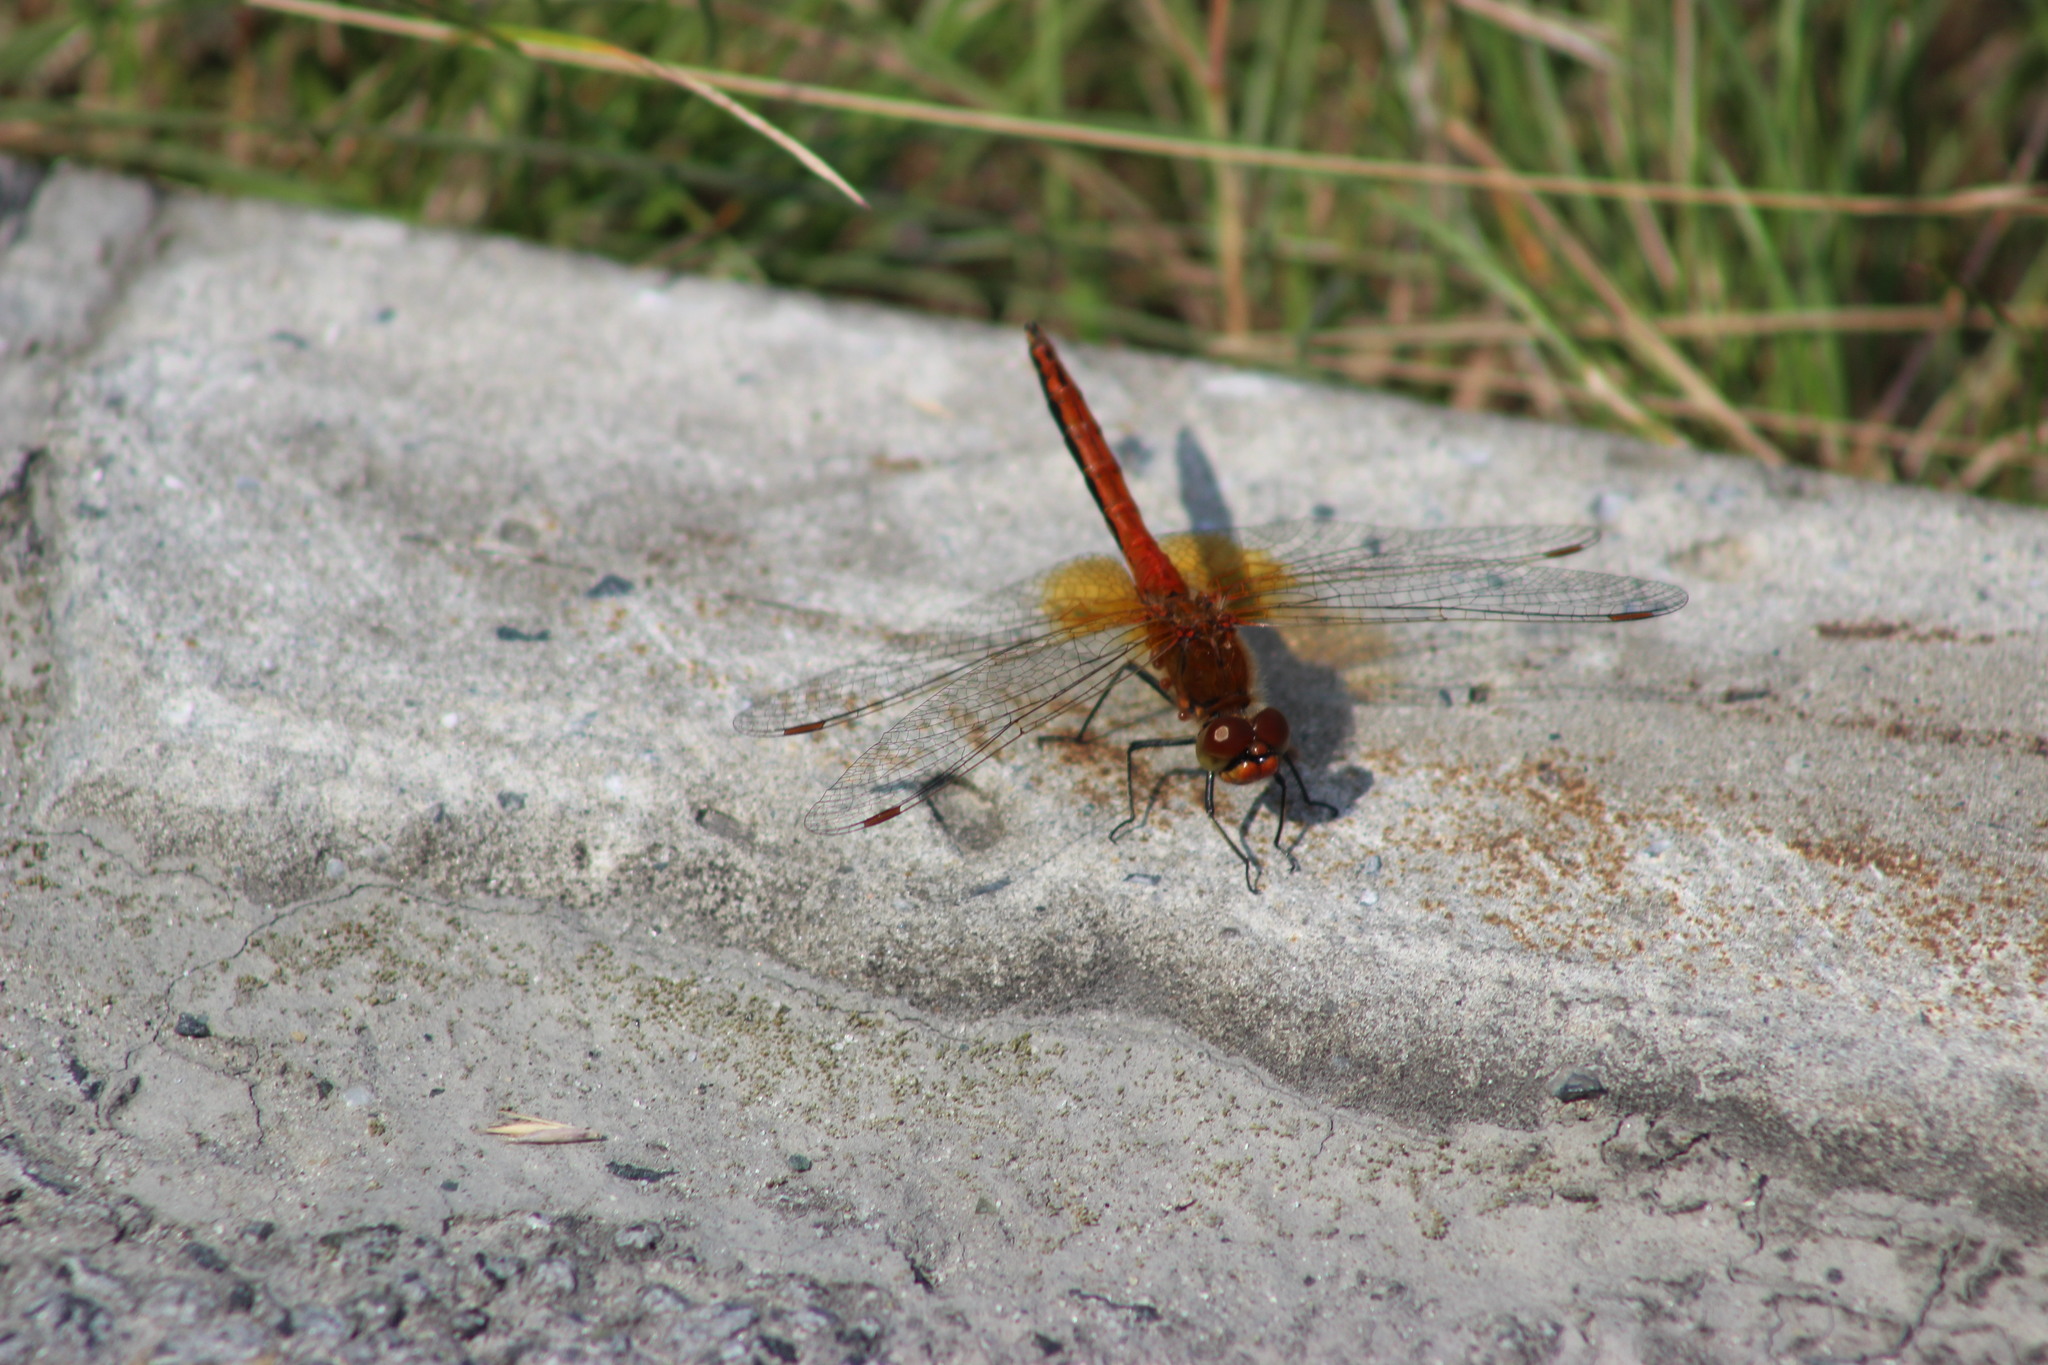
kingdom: Animalia
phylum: Arthropoda
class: Insecta
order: Odonata
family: Libellulidae
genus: Sympetrum
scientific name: Sympetrum flaveolum
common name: Yellow-winged darter
